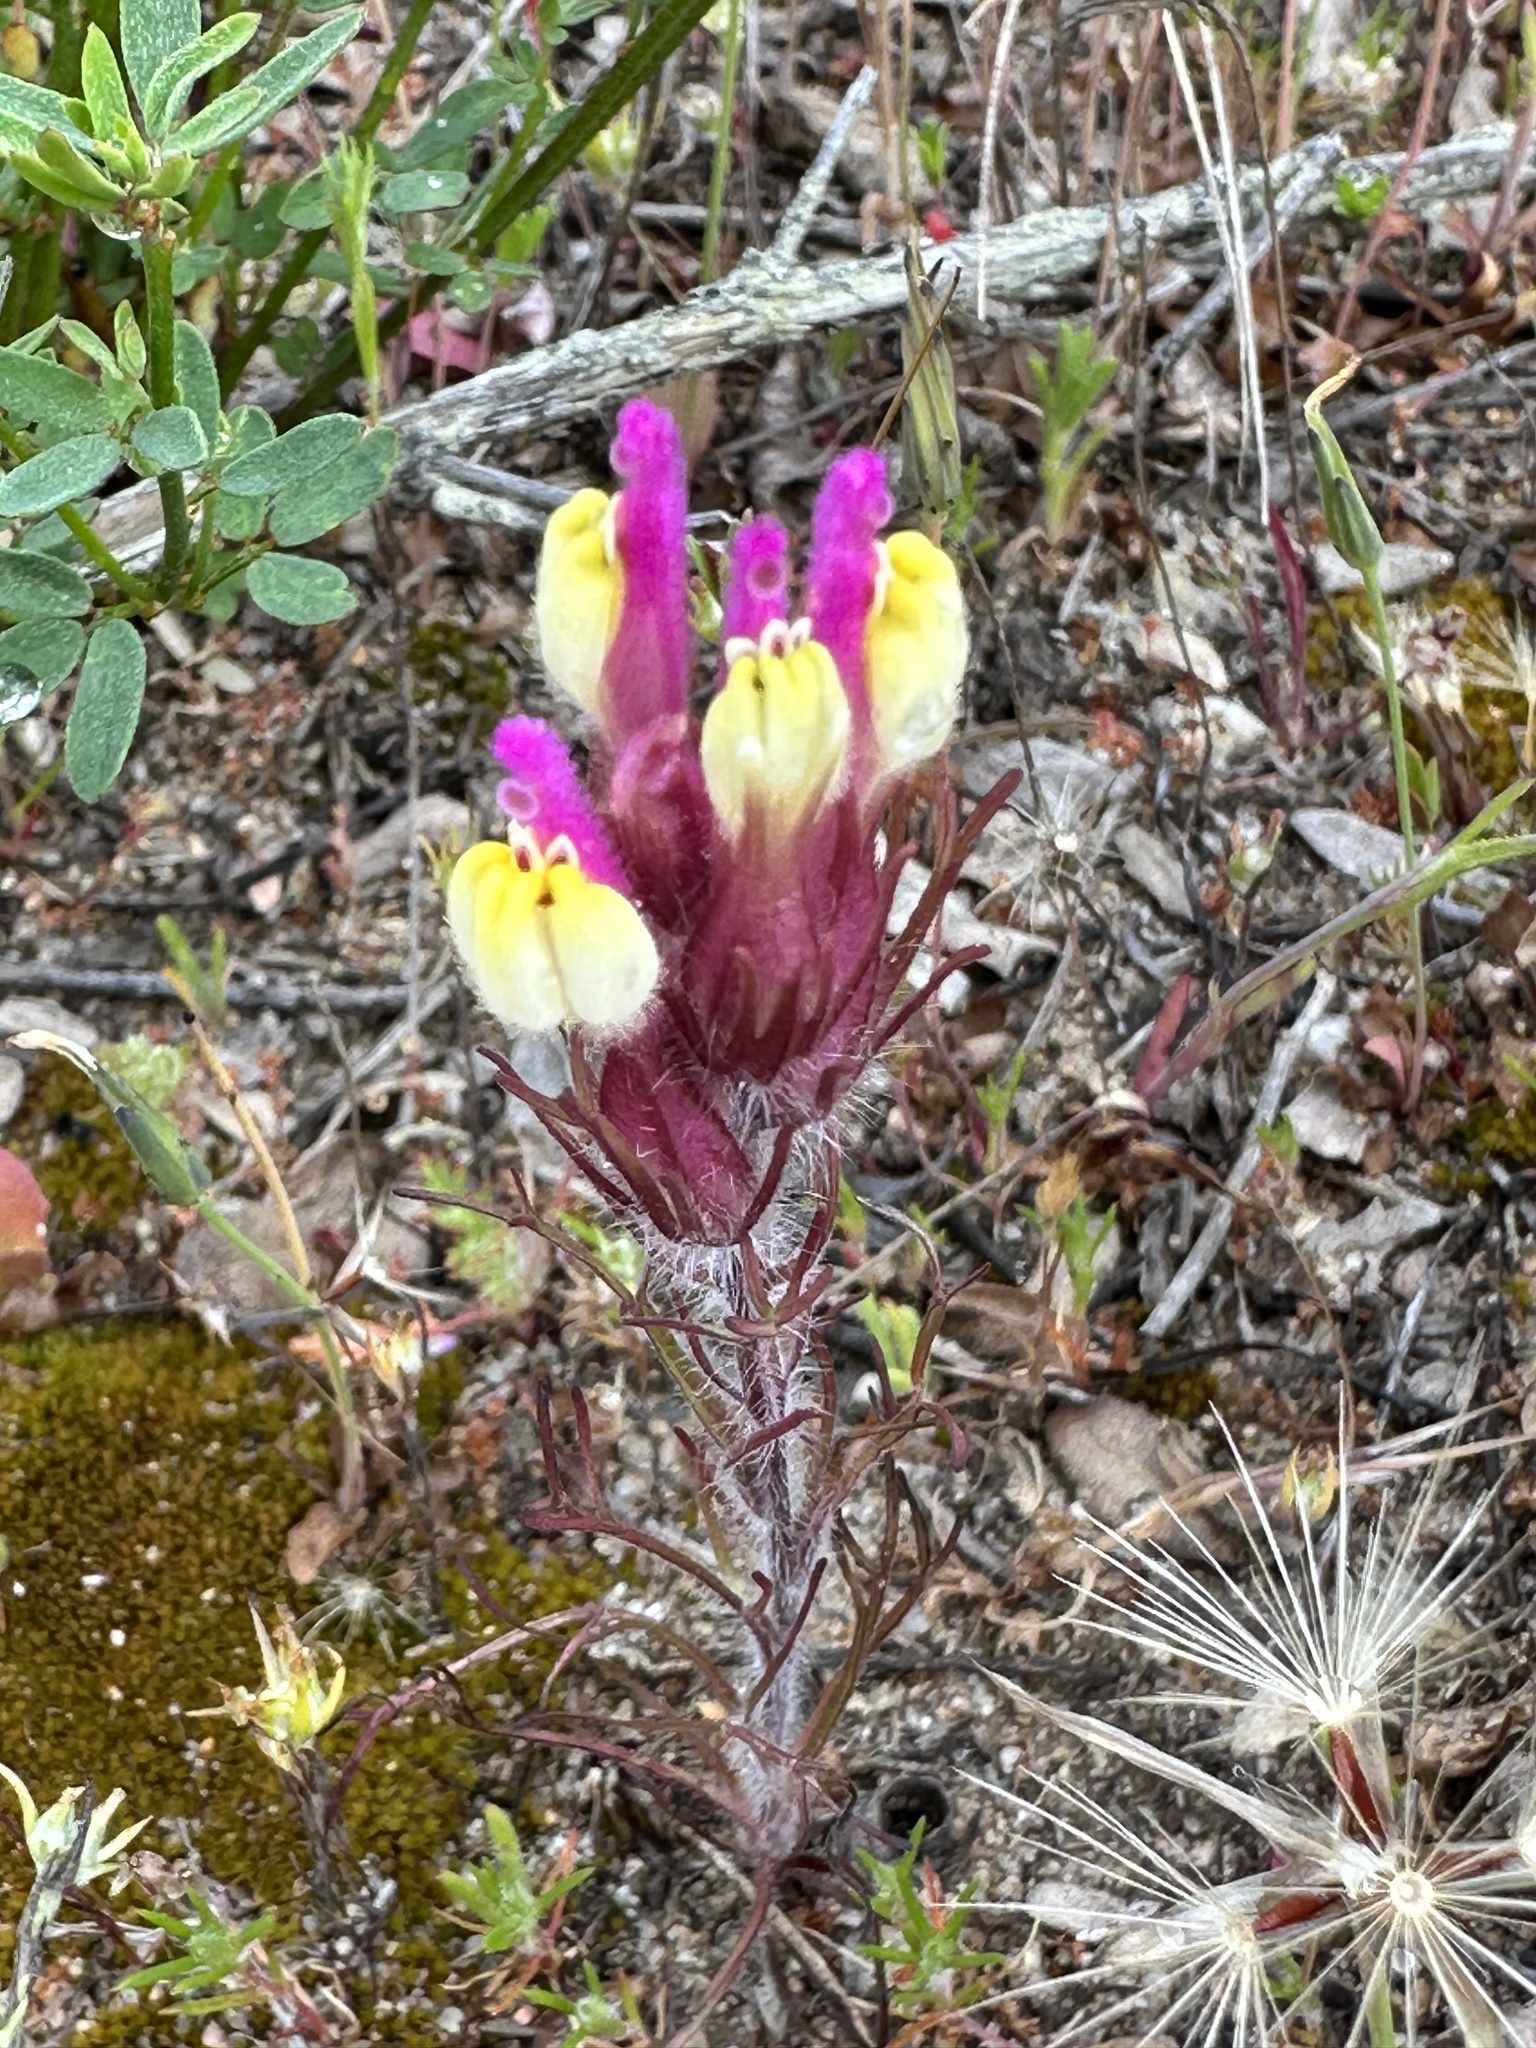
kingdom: Plantae
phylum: Tracheophyta
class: Magnoliopsida
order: Lamiales
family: Orobanchaceae
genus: Castilleja
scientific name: Castilleja exserta
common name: Purple owl-clover
